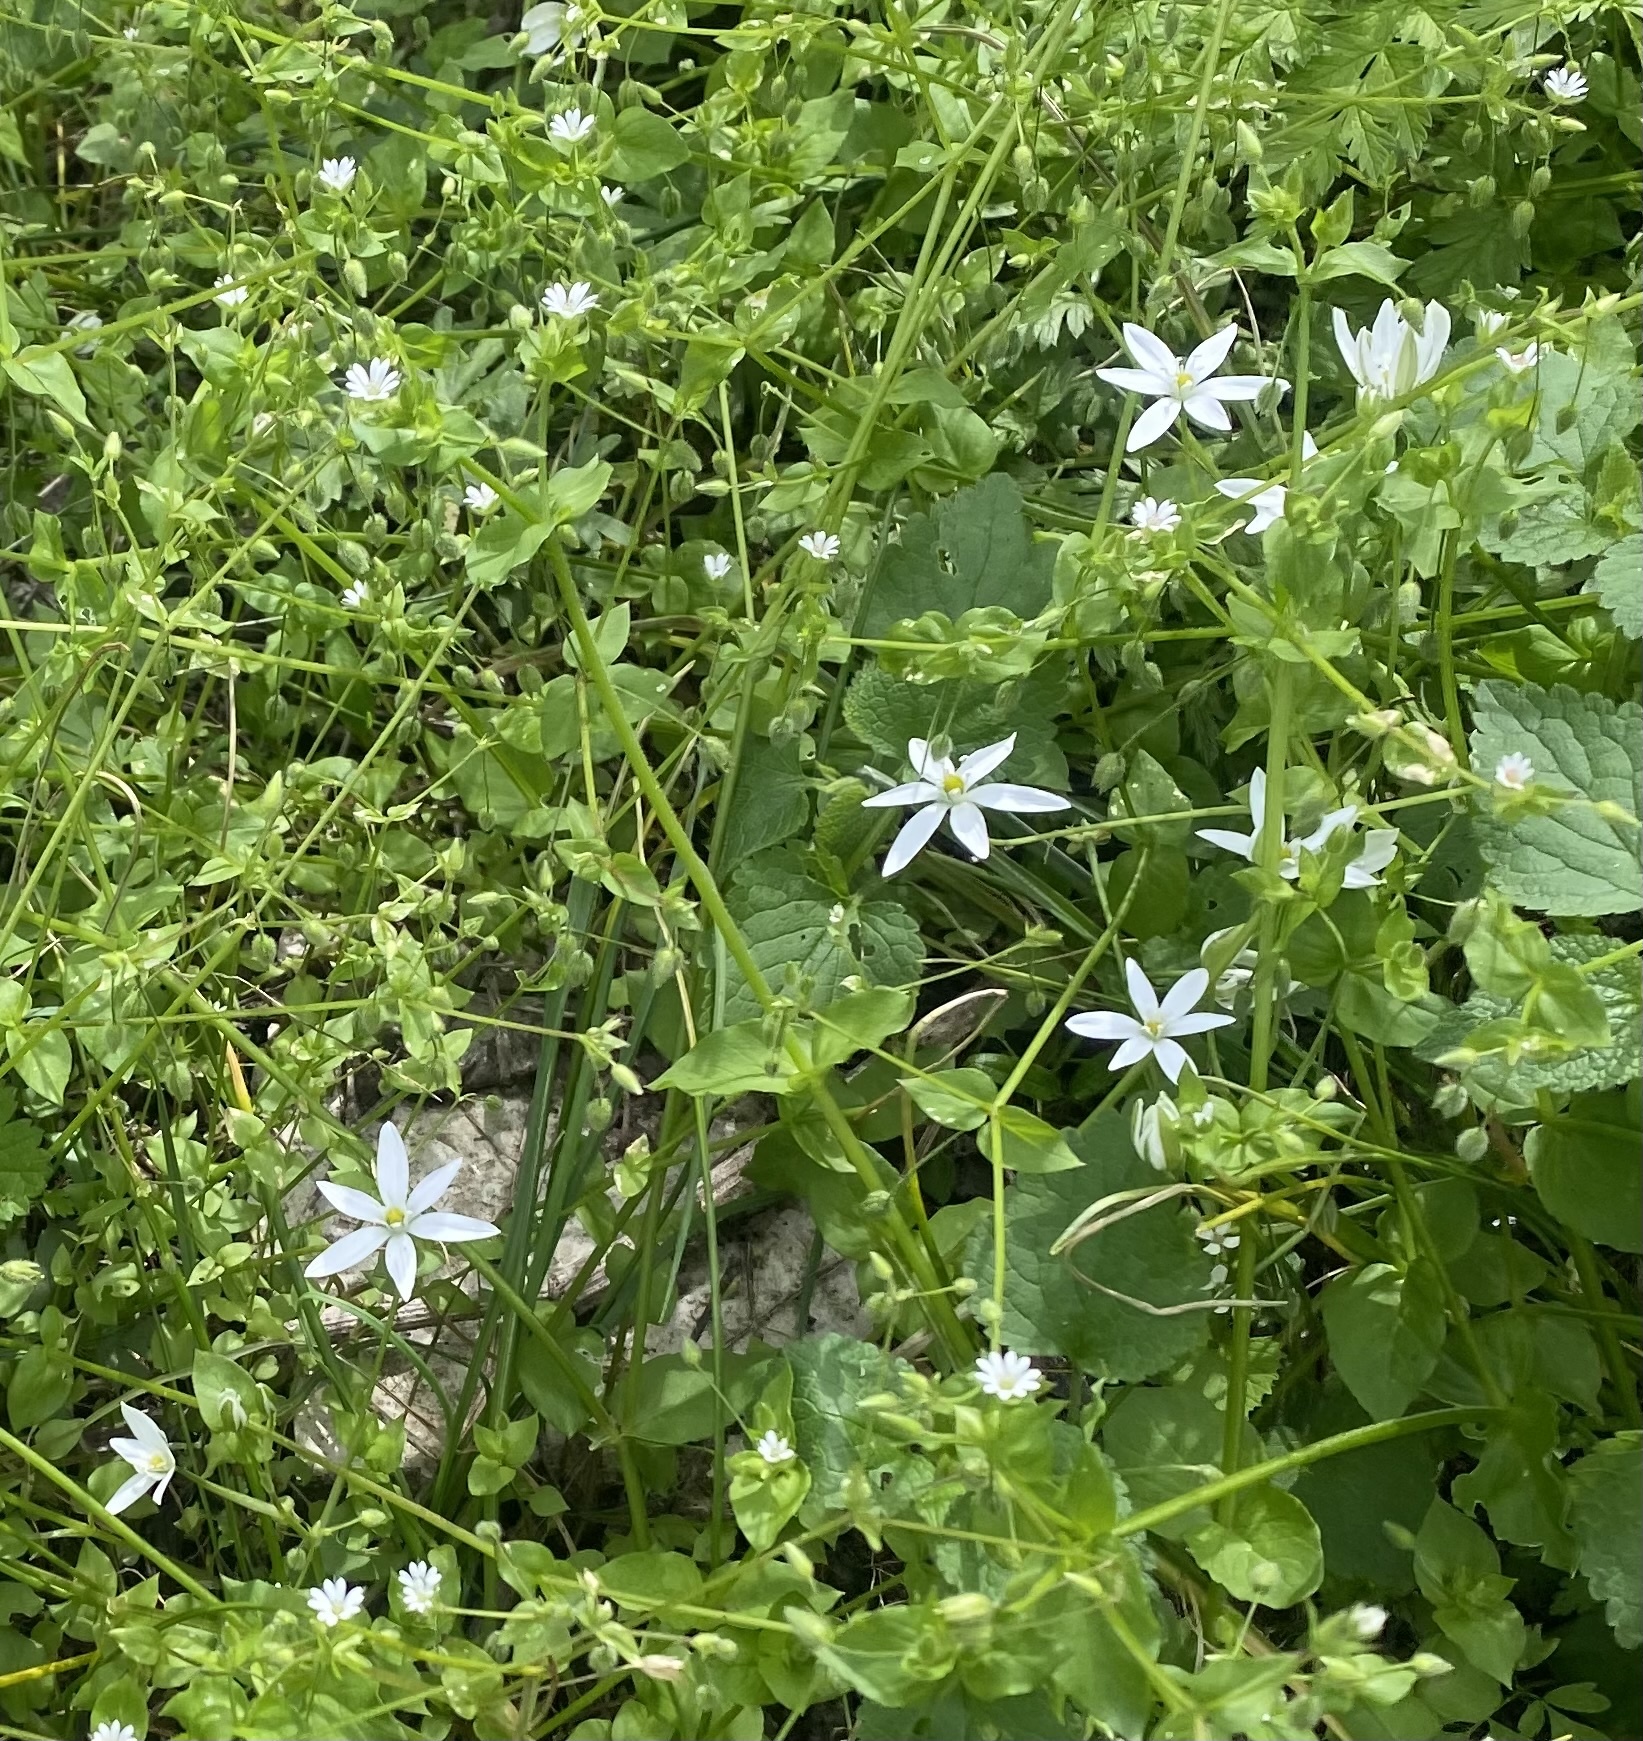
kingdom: Plantae
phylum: Tracheophyta
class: Liliopsida
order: Asparagales
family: Asparagaceae
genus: Ornithogalum
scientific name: Ornithogalum woronowii
